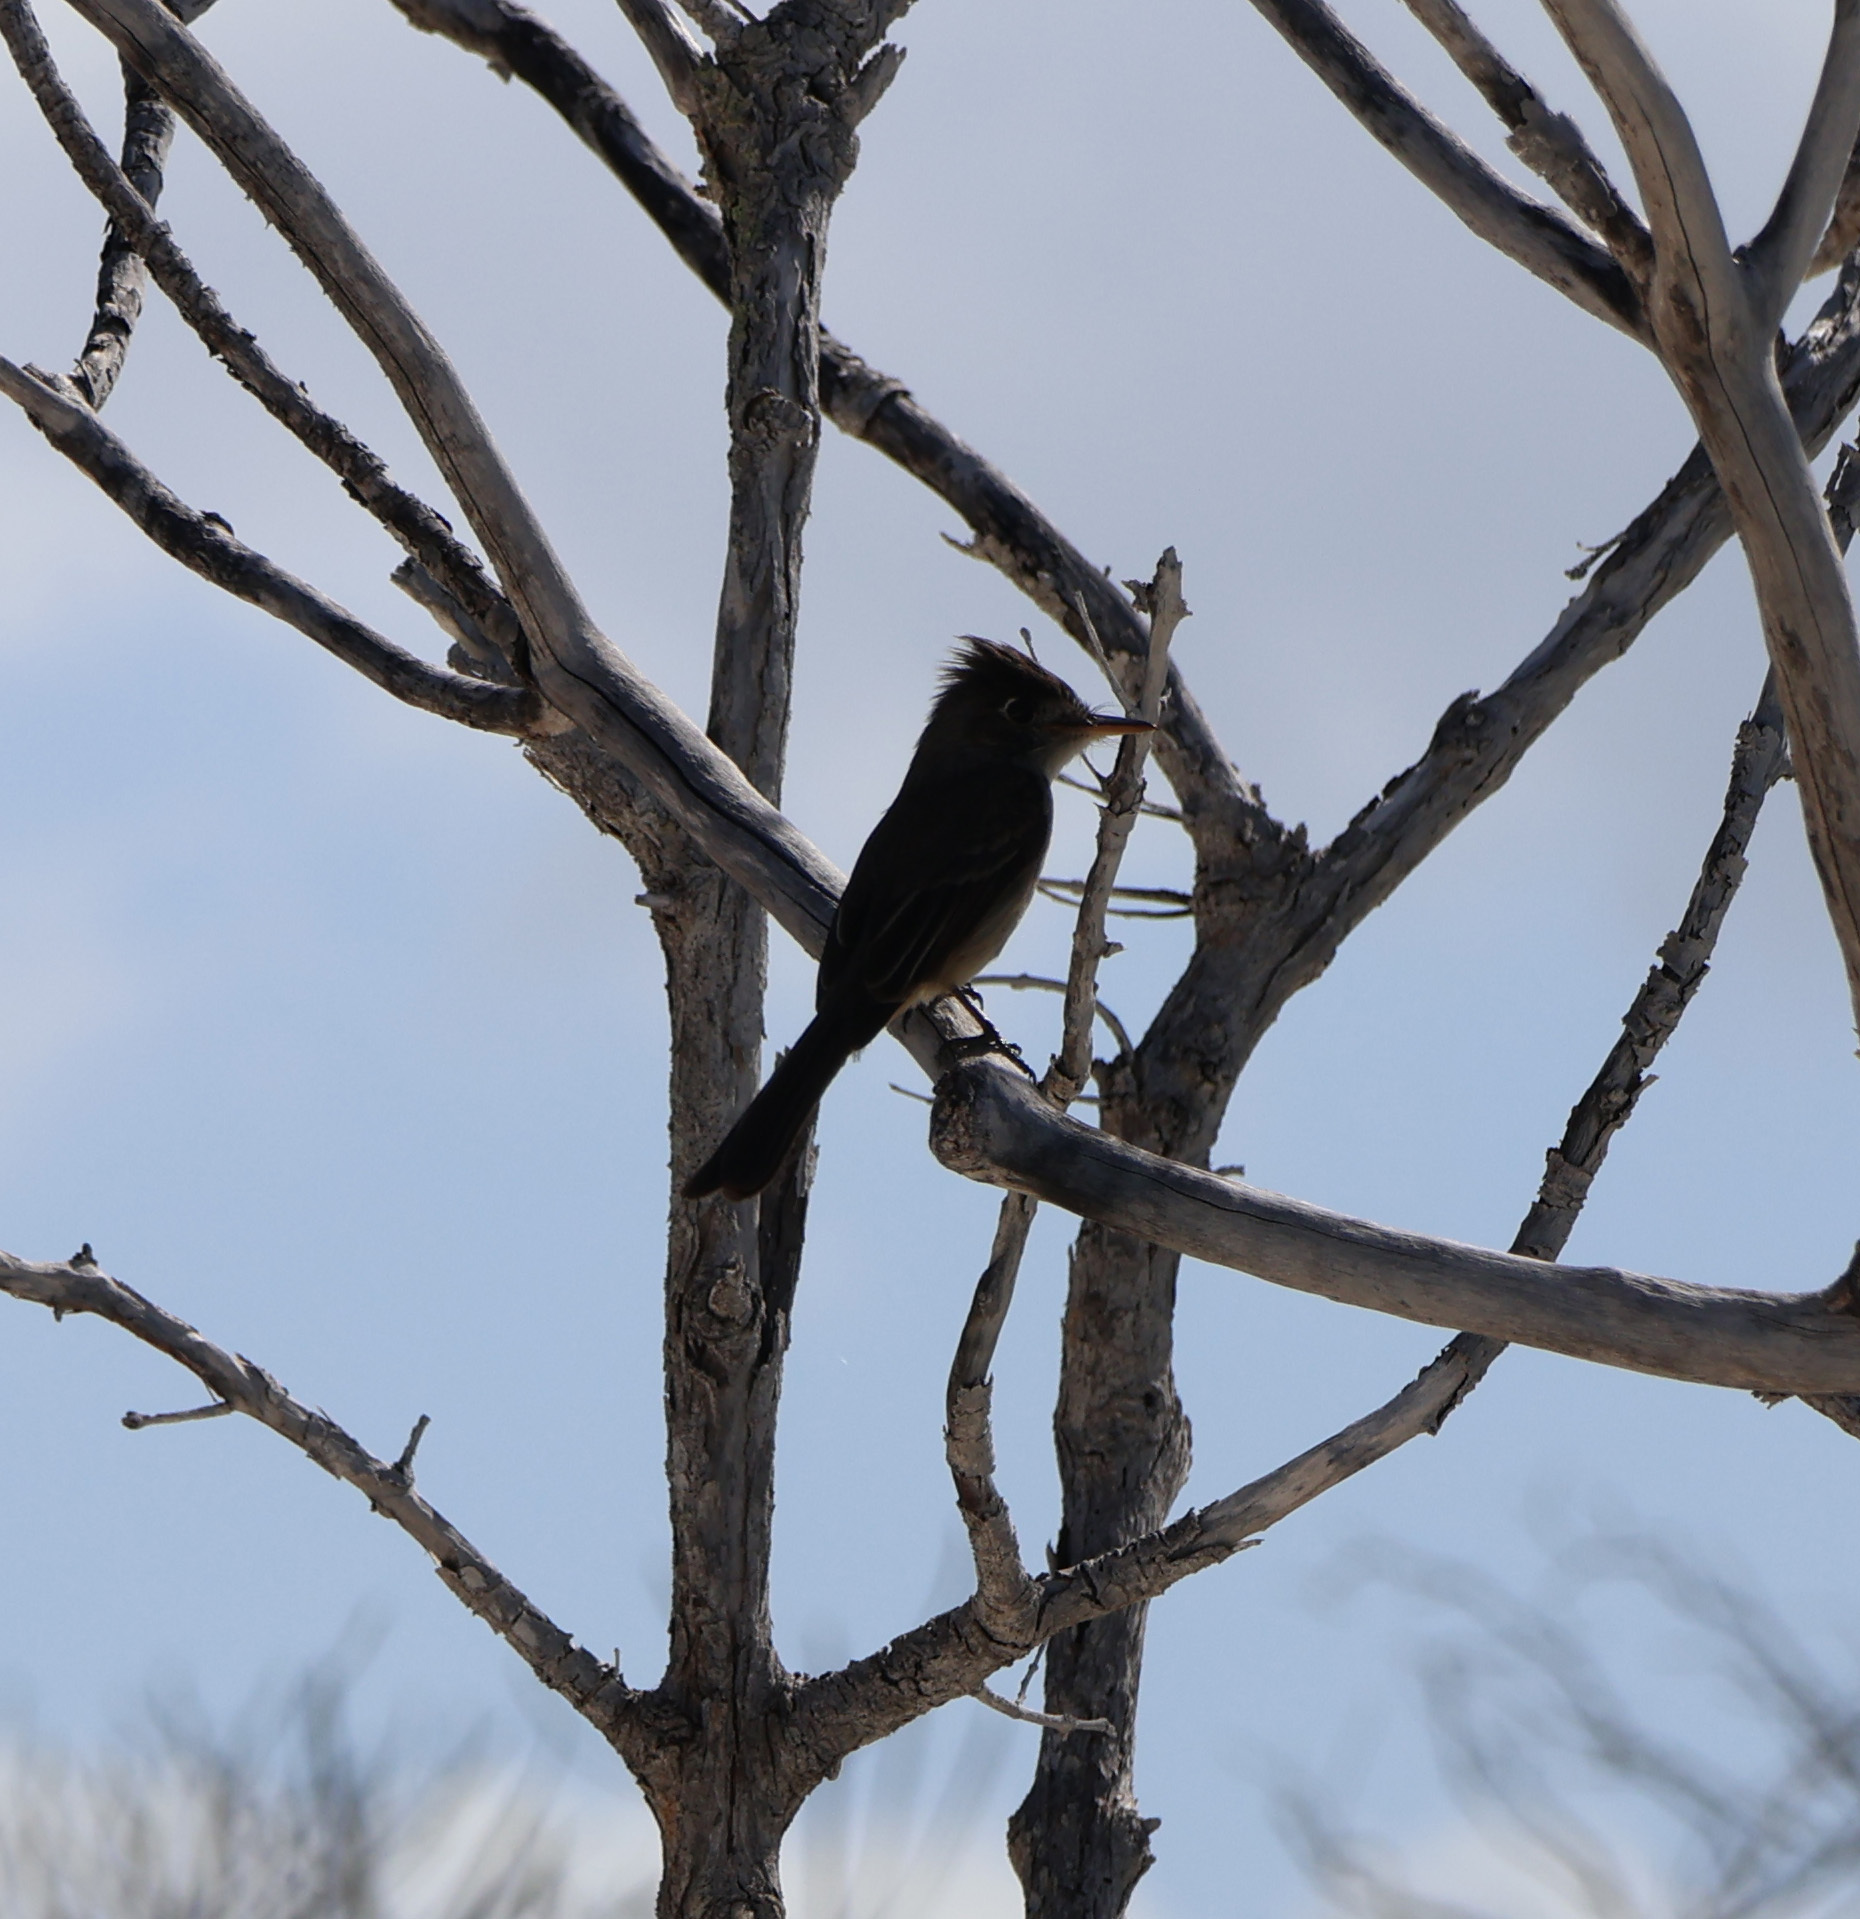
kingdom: Animalia
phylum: Chordata
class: Aves
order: Passeriformes
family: Tyrannidae
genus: Contopus
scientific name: Contopus caribaeus
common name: Cuban pewee
